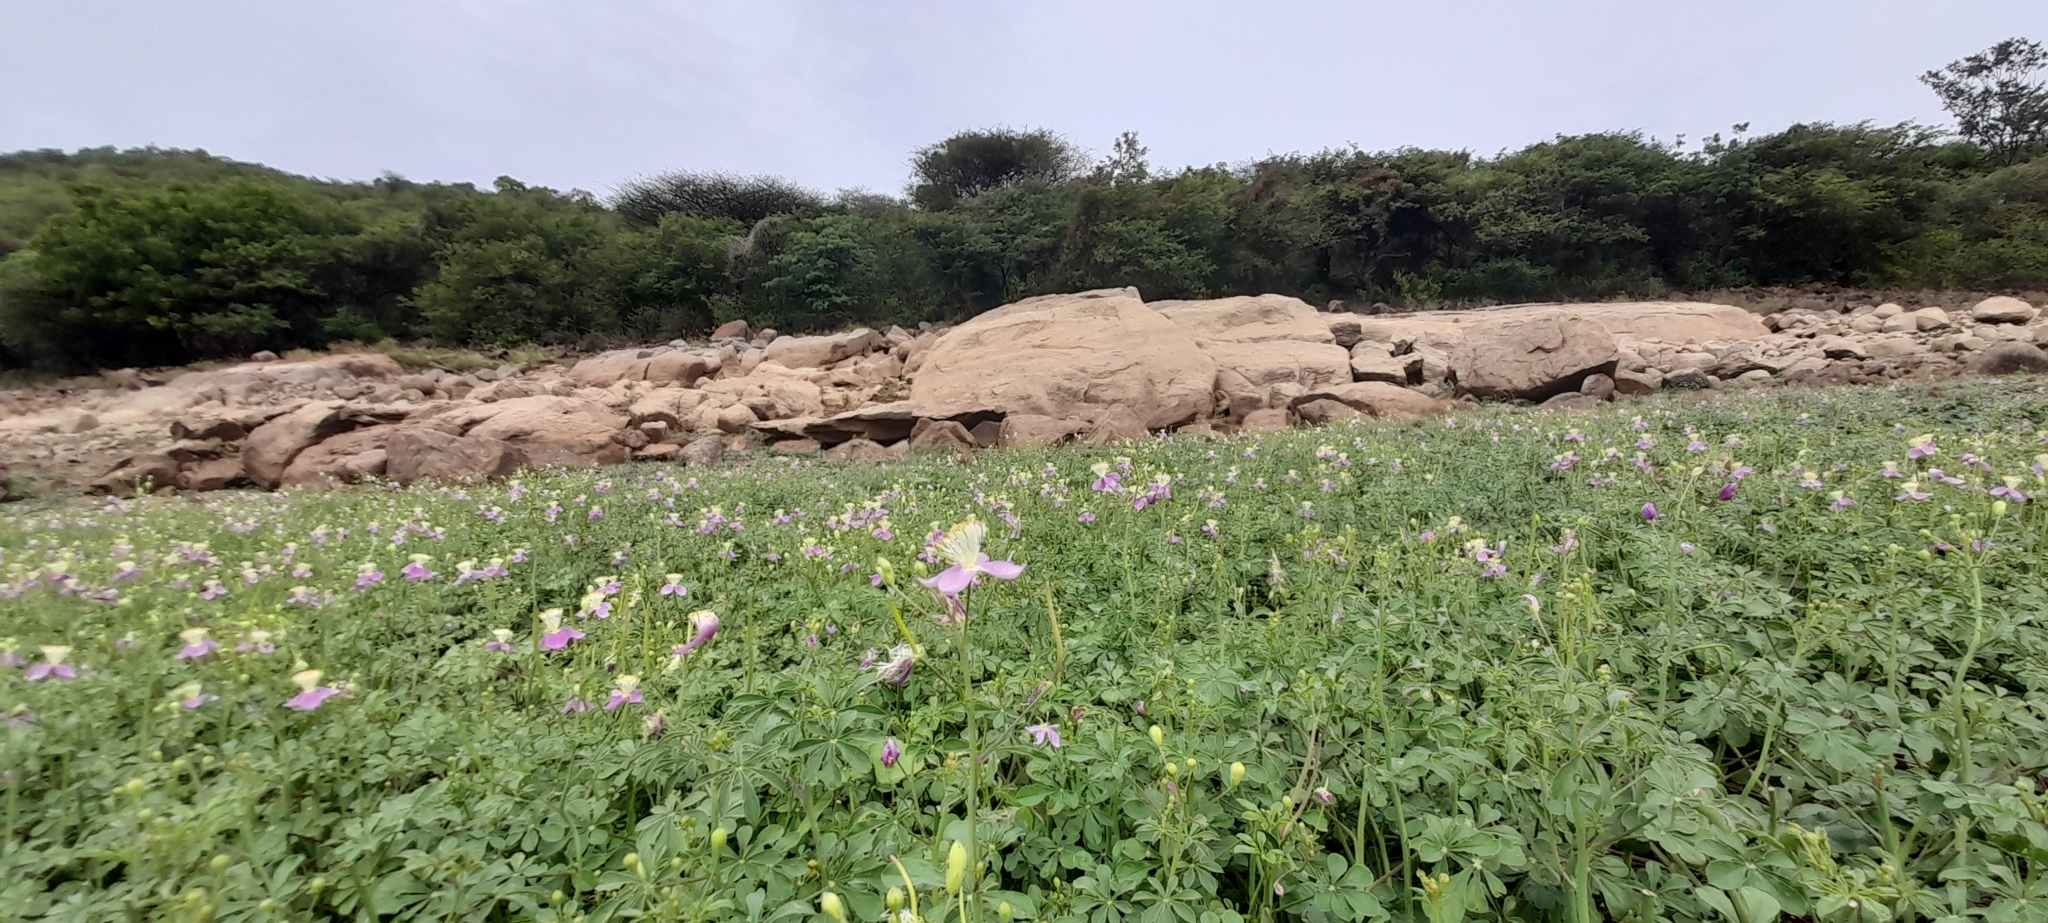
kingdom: Plantae
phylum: Tracheophyta
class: Magnoliopsida
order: Brassicales
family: Cleomaceae
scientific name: Cleomaceae
